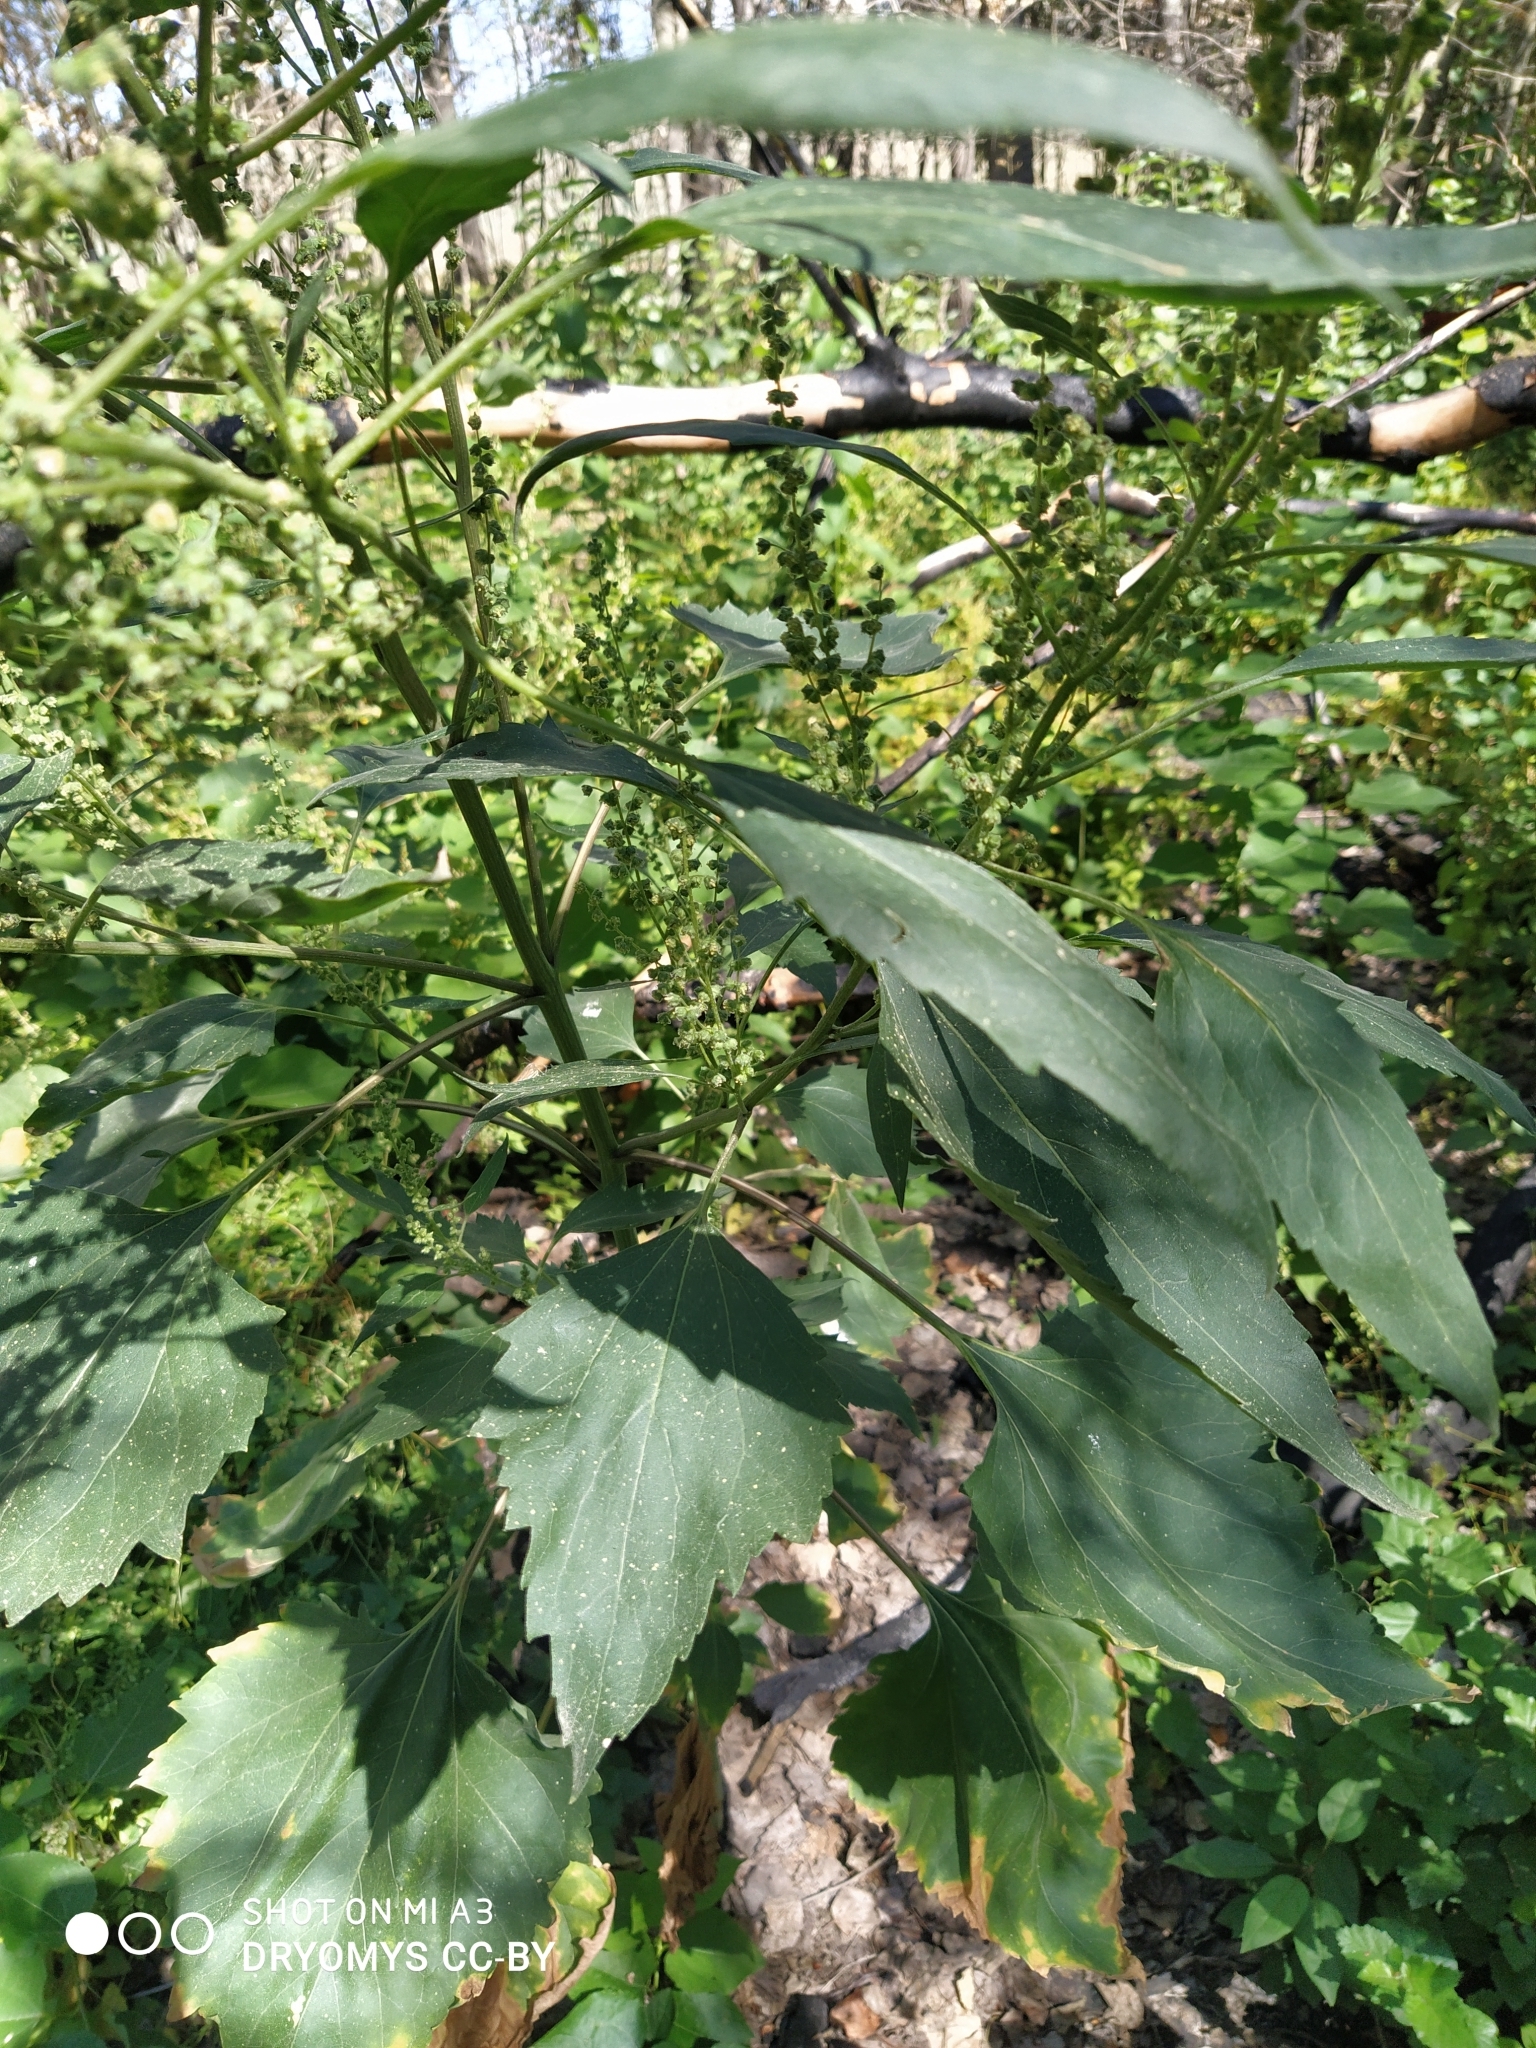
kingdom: Plantae
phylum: Tracheophyta
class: Magnoliopsida
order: Asterales
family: Asteraceae
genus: Cyclachaena
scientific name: Cyclachaena xanthiifolia
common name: Giant sumpweed
